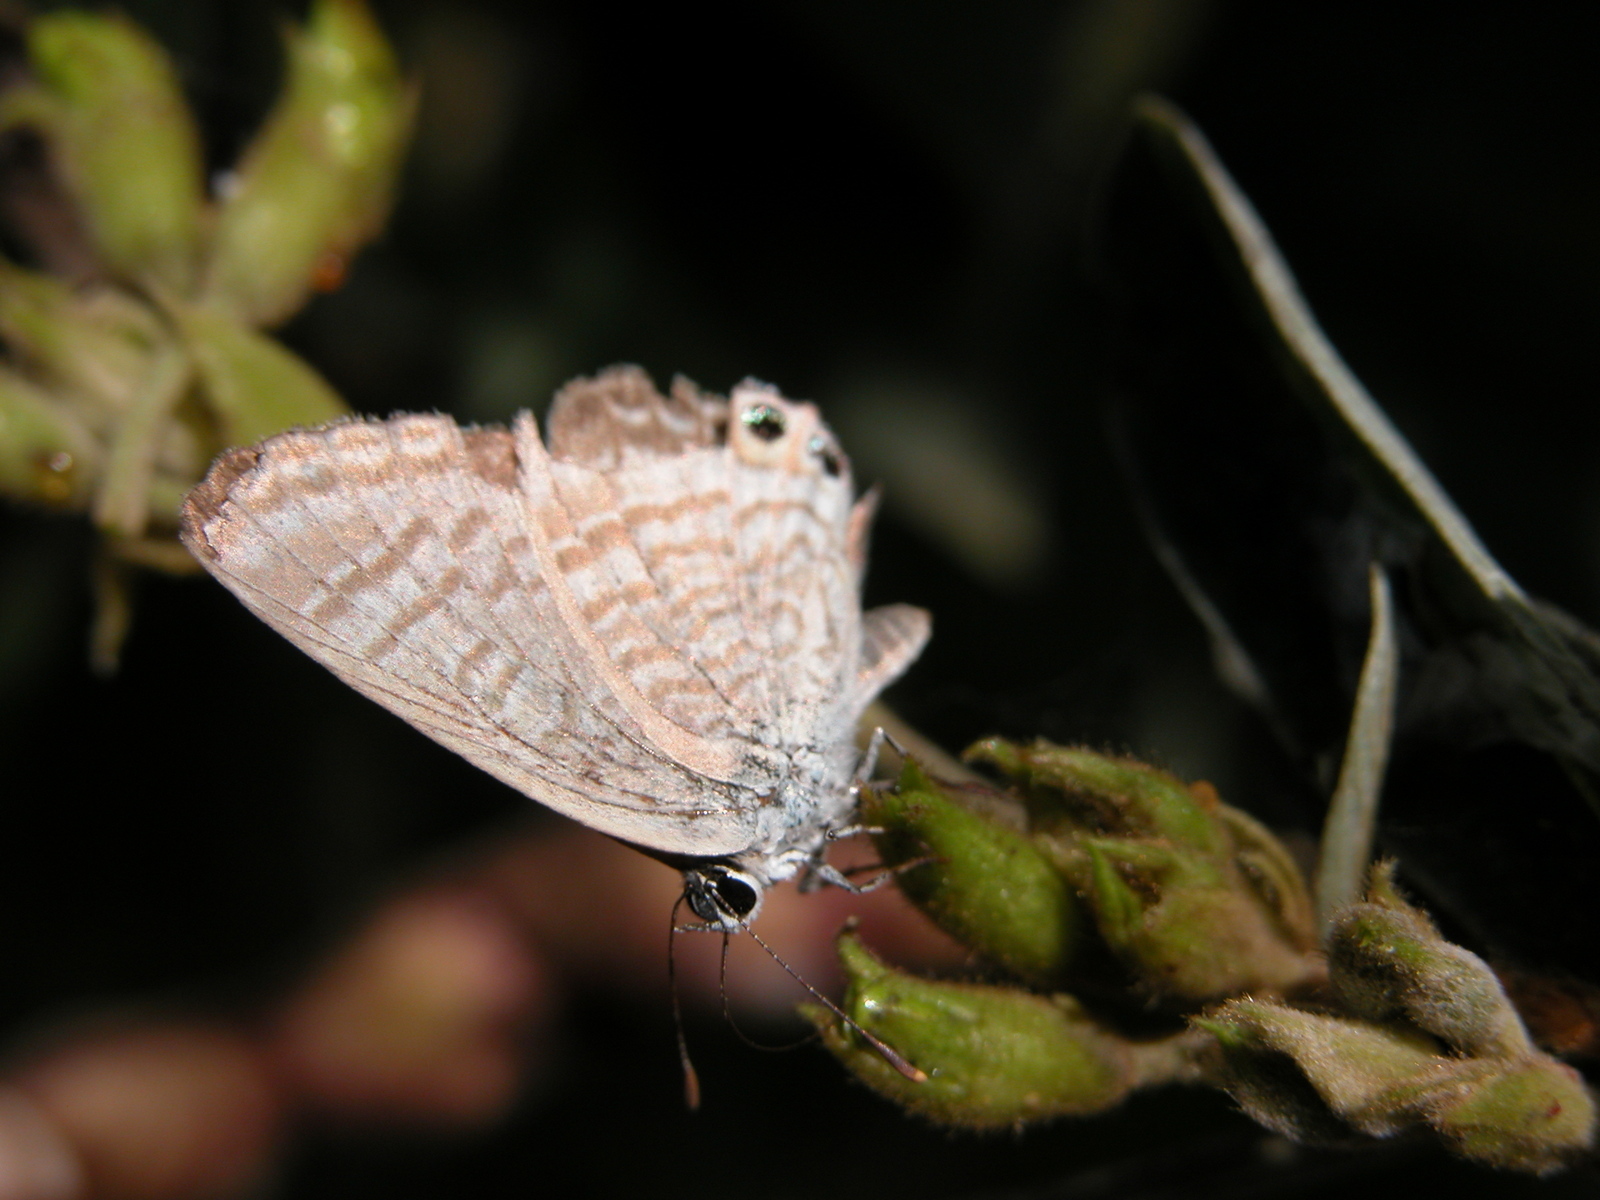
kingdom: Animalia
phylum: Arthropoda
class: Insecta
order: Lepidoptera
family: Lycaenidae
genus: Lampides
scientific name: Lampides boeticus
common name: Long-tailed blue
